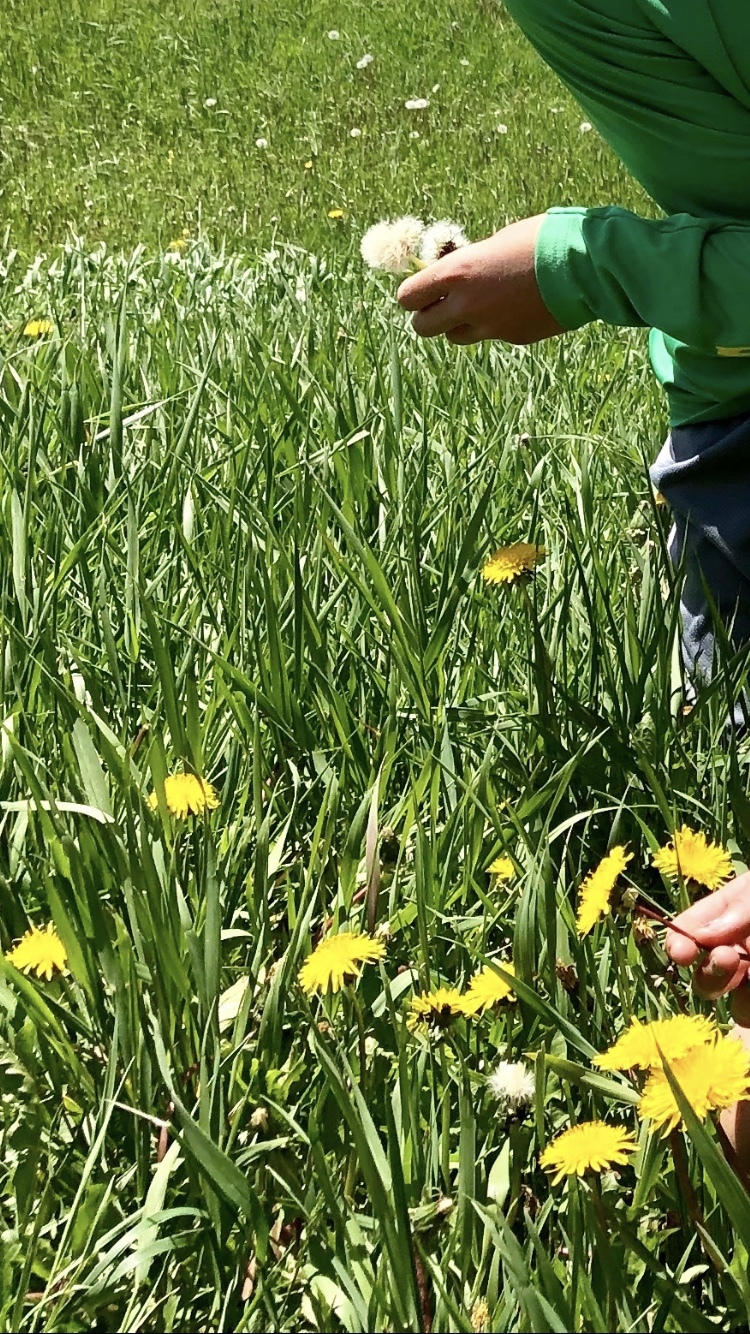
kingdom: Plantae
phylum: Tracheophyta
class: Magnoliopsida
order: Asterales
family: Asteraceae
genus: Taraxacum
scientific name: Taraxacum officinale
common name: Common dandelion
